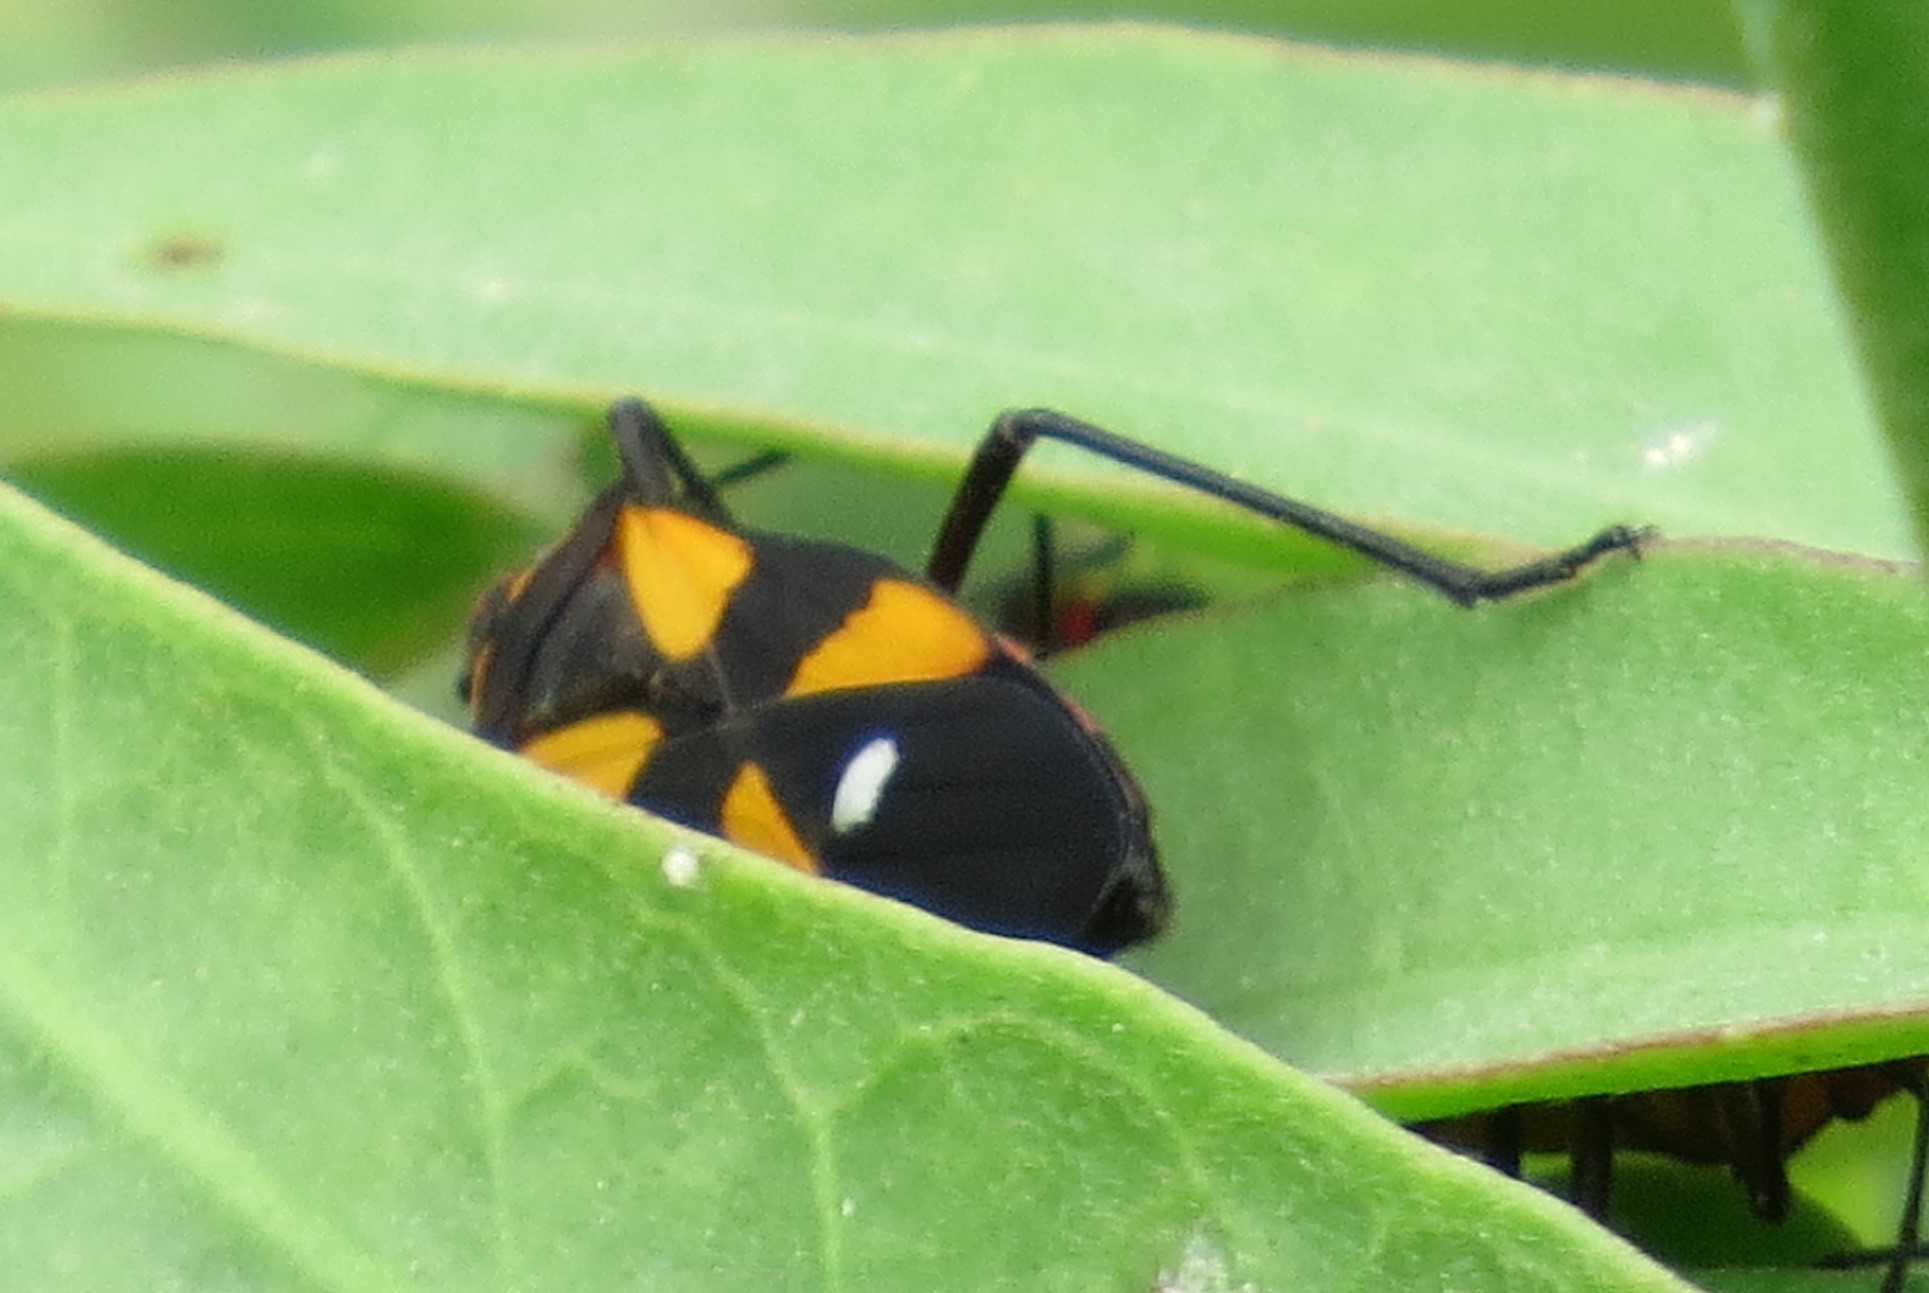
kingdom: Animalia
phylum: Arthropoda
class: Insecta
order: Hemiptera
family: Lygaeidae
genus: Oncopeltus
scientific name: Oncopeltus sexmaculatus
